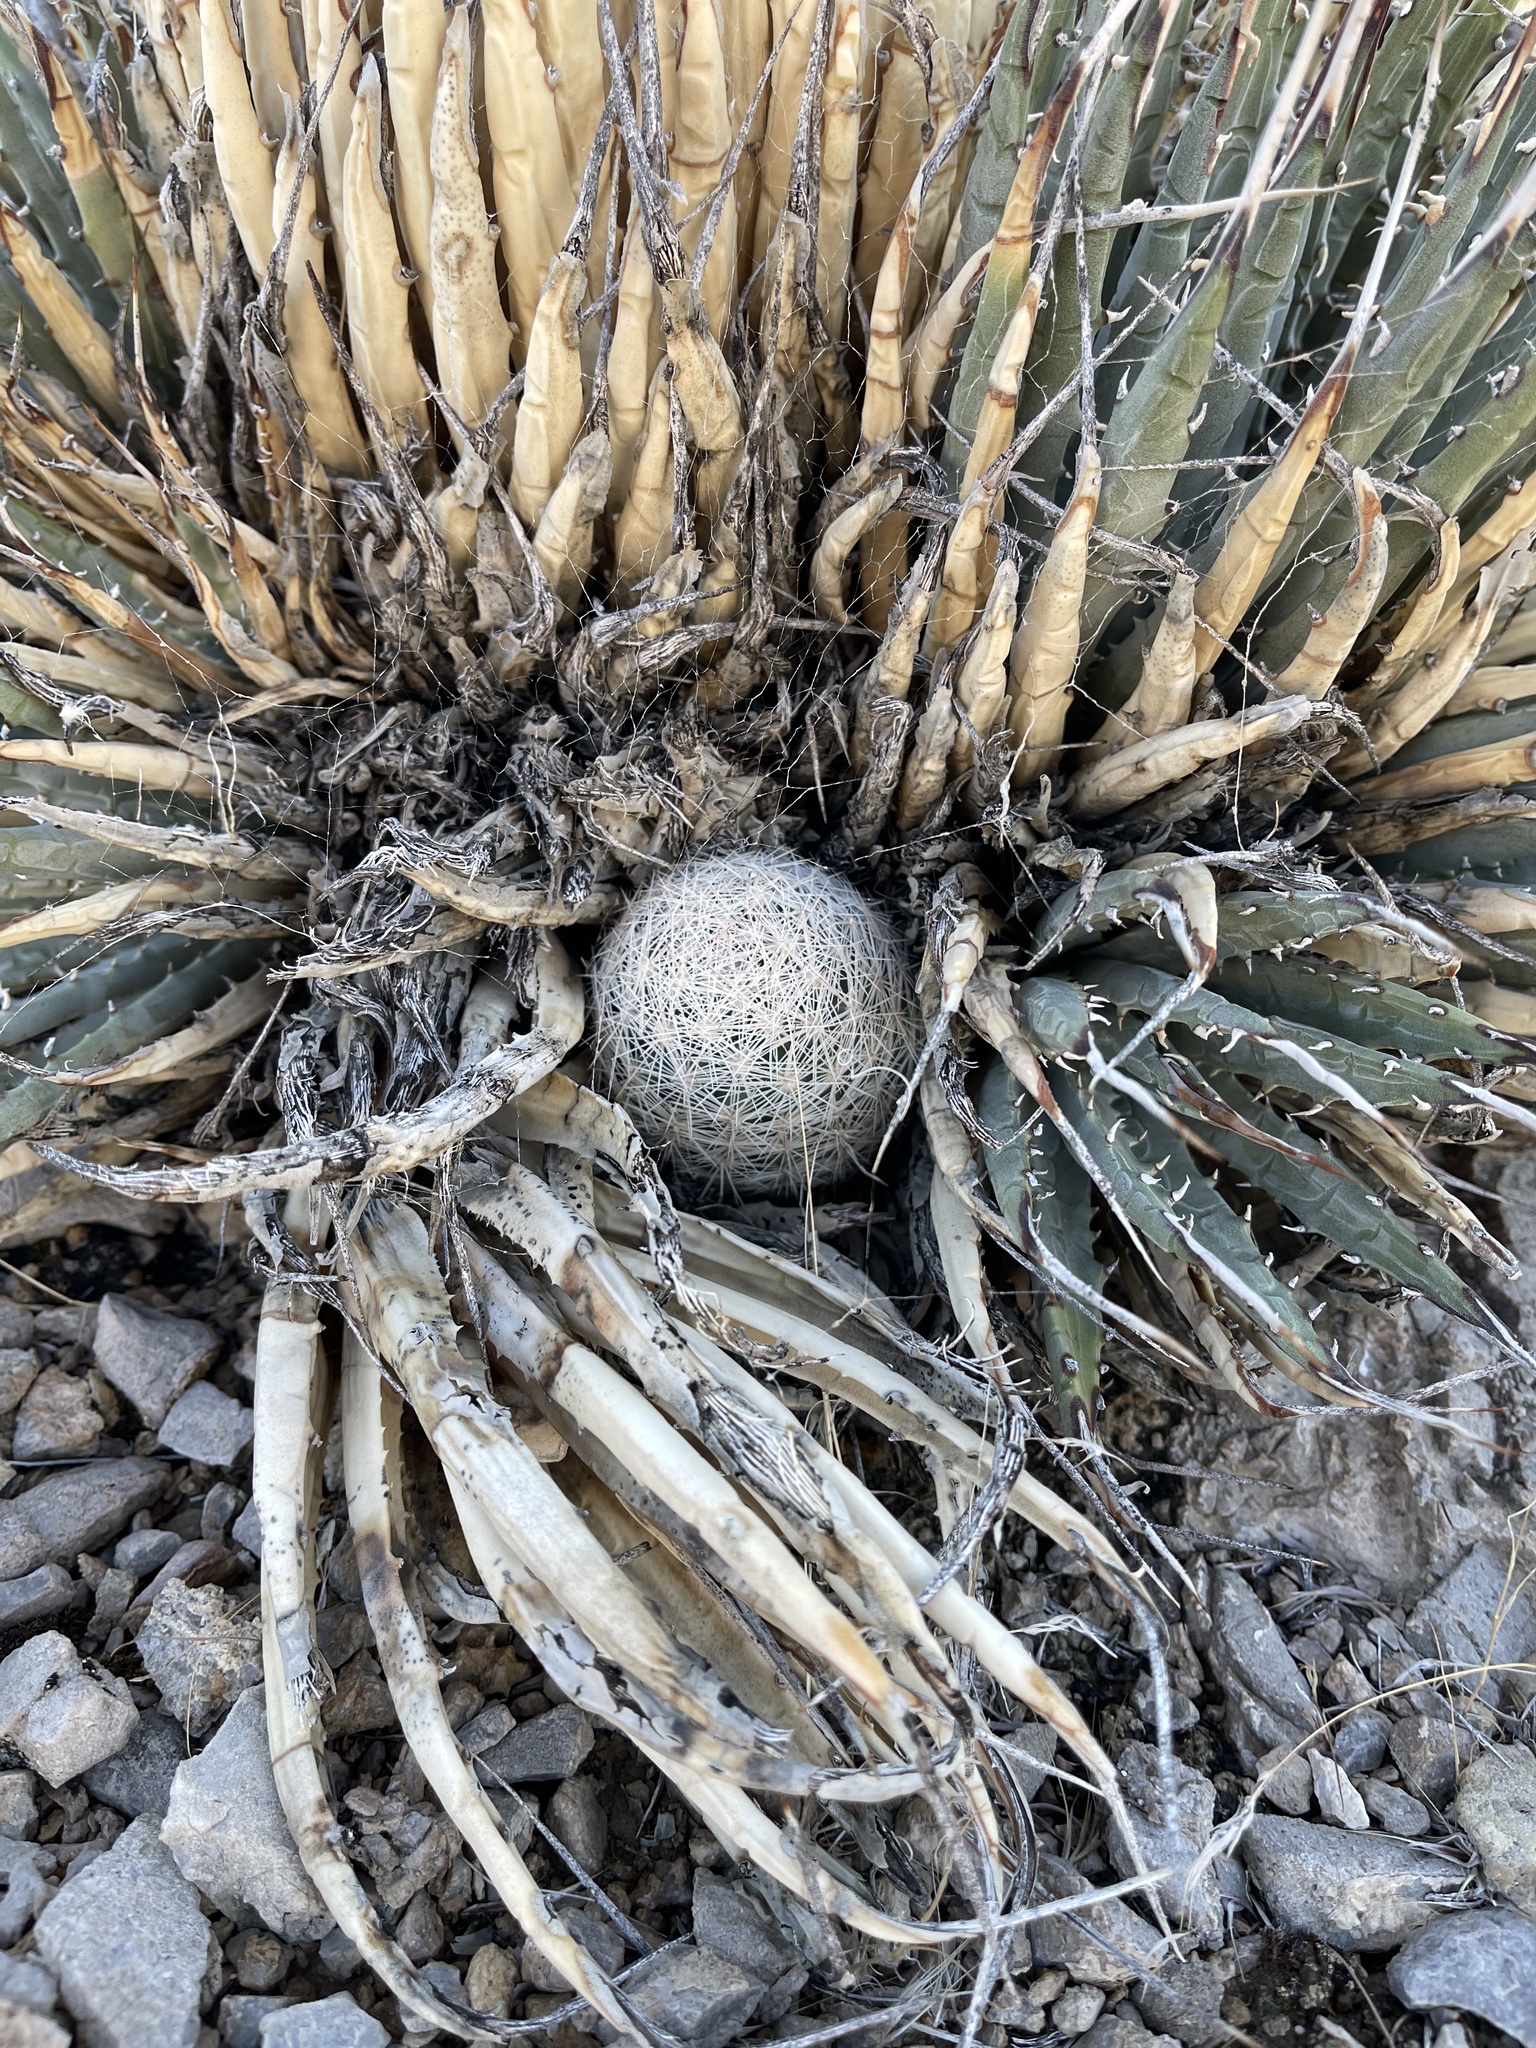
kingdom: Plantae
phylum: Tracheophyta
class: Magnoliopsida
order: Caryophyllales
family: Cactaceae
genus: Pelecyphora
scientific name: Pelecyphora dasyacantha
